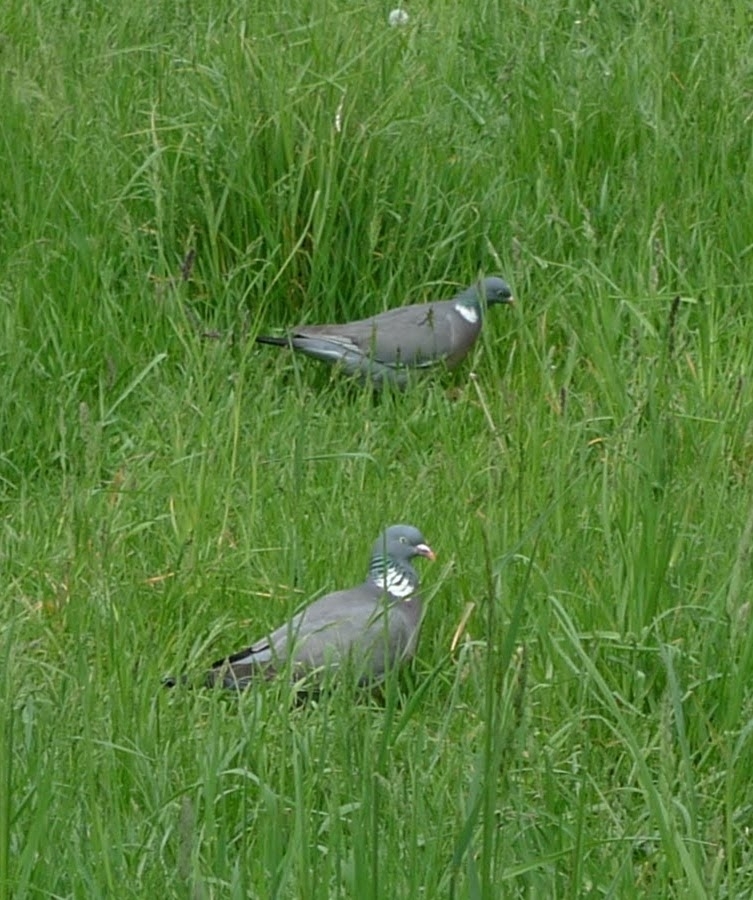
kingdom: Animalia
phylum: Chordata
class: Aves
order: Columbiformes
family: Columbidae
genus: Columba
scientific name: Columba palumbus
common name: Common wood pigeon
